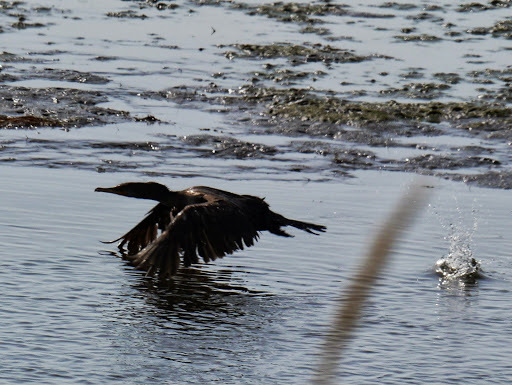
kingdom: Animalia
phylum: Chordata
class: Aves
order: Suliformes
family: Phalacrocoracidae
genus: Phalacrocorax
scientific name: Phalacrocorax auritus
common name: Double-crested cormorant
